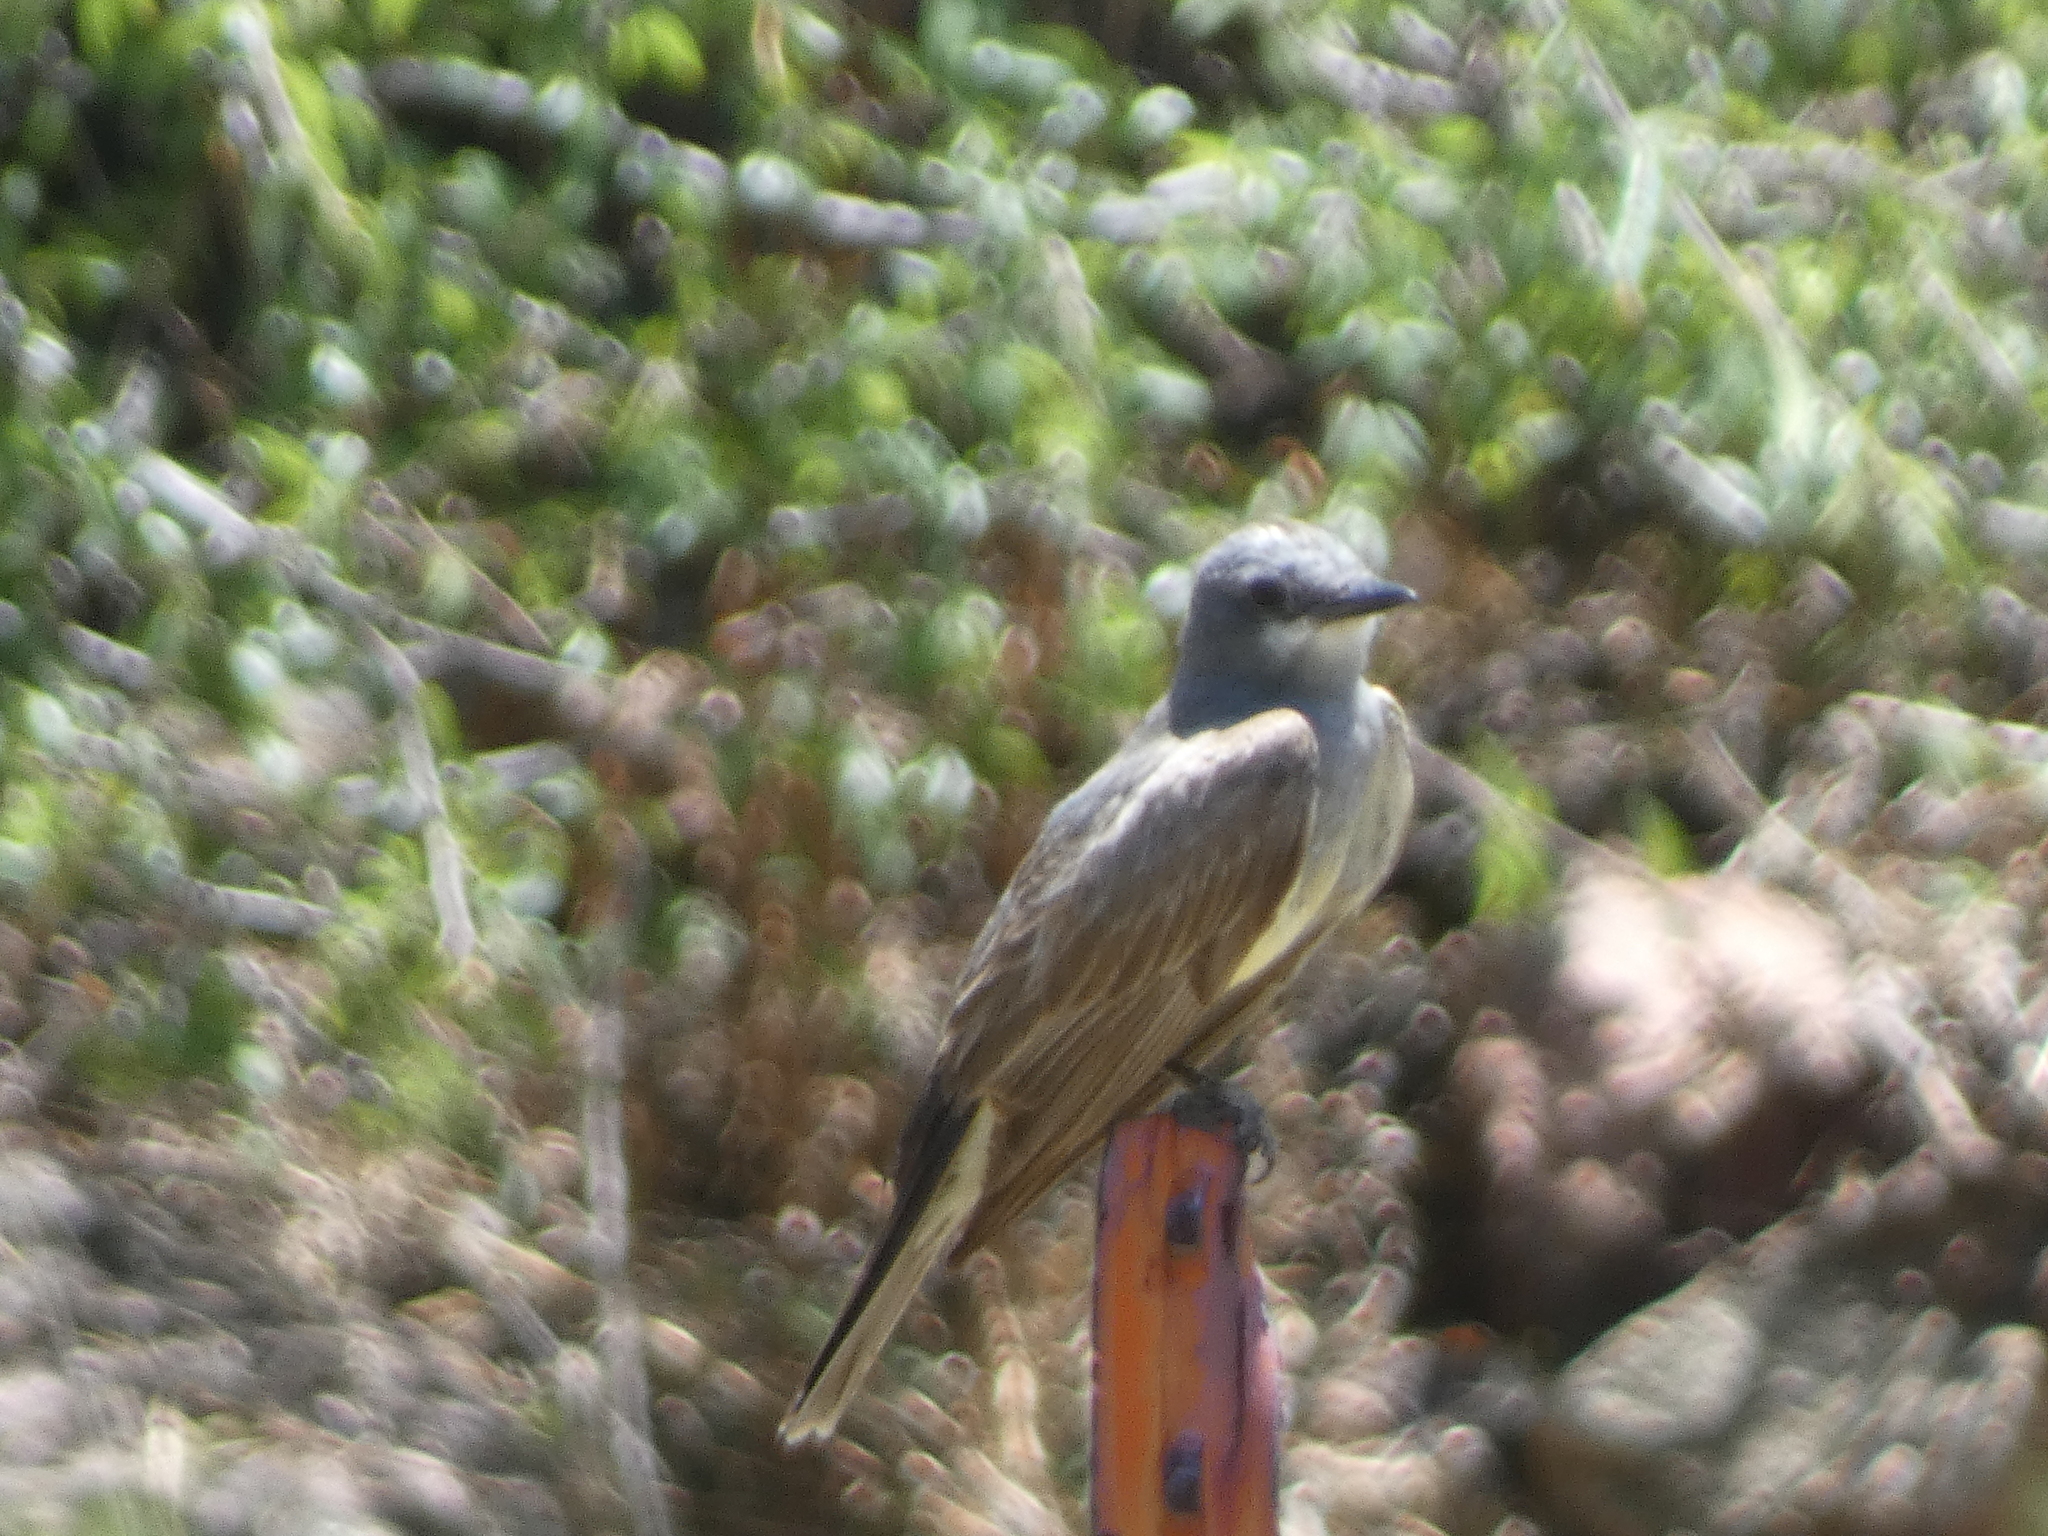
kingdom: Animalia
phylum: Chordata
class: Aves
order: Passeriformes
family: Tyrannidae
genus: Tyrannus
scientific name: Tyrannus vociferans
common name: Cassin's kingbird
